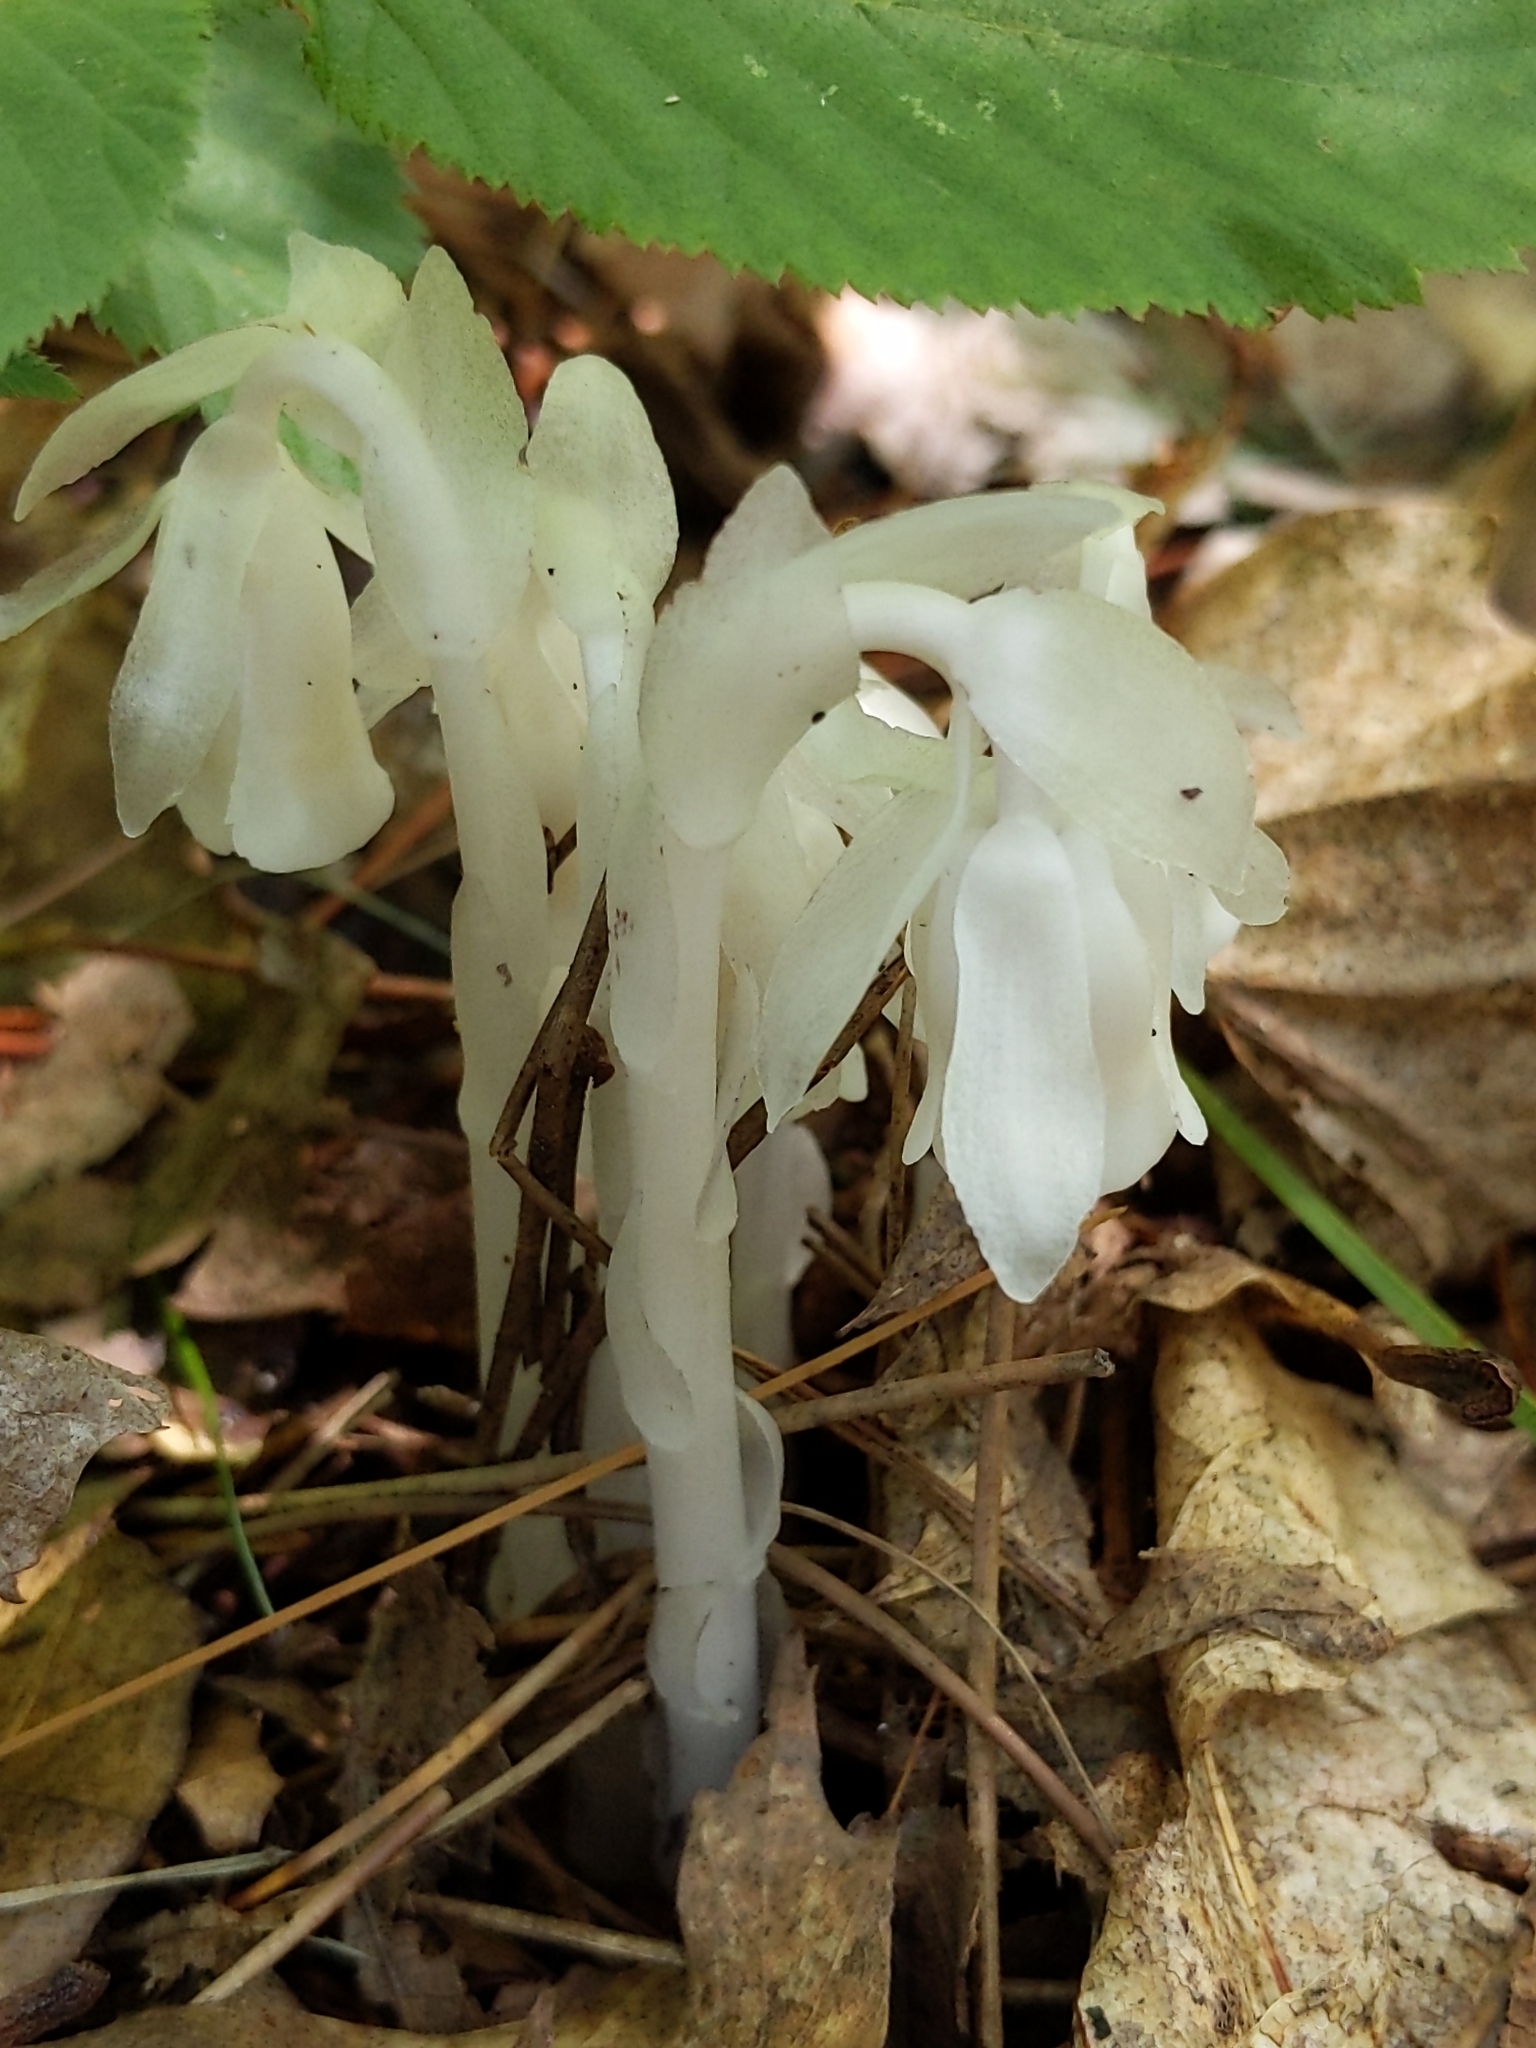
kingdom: Plantae
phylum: Tracheophyta
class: Magnoliopsida
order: Ericales
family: Ericaceae
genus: Monotropa
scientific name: Monotropa uniflora
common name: Convulsion root
